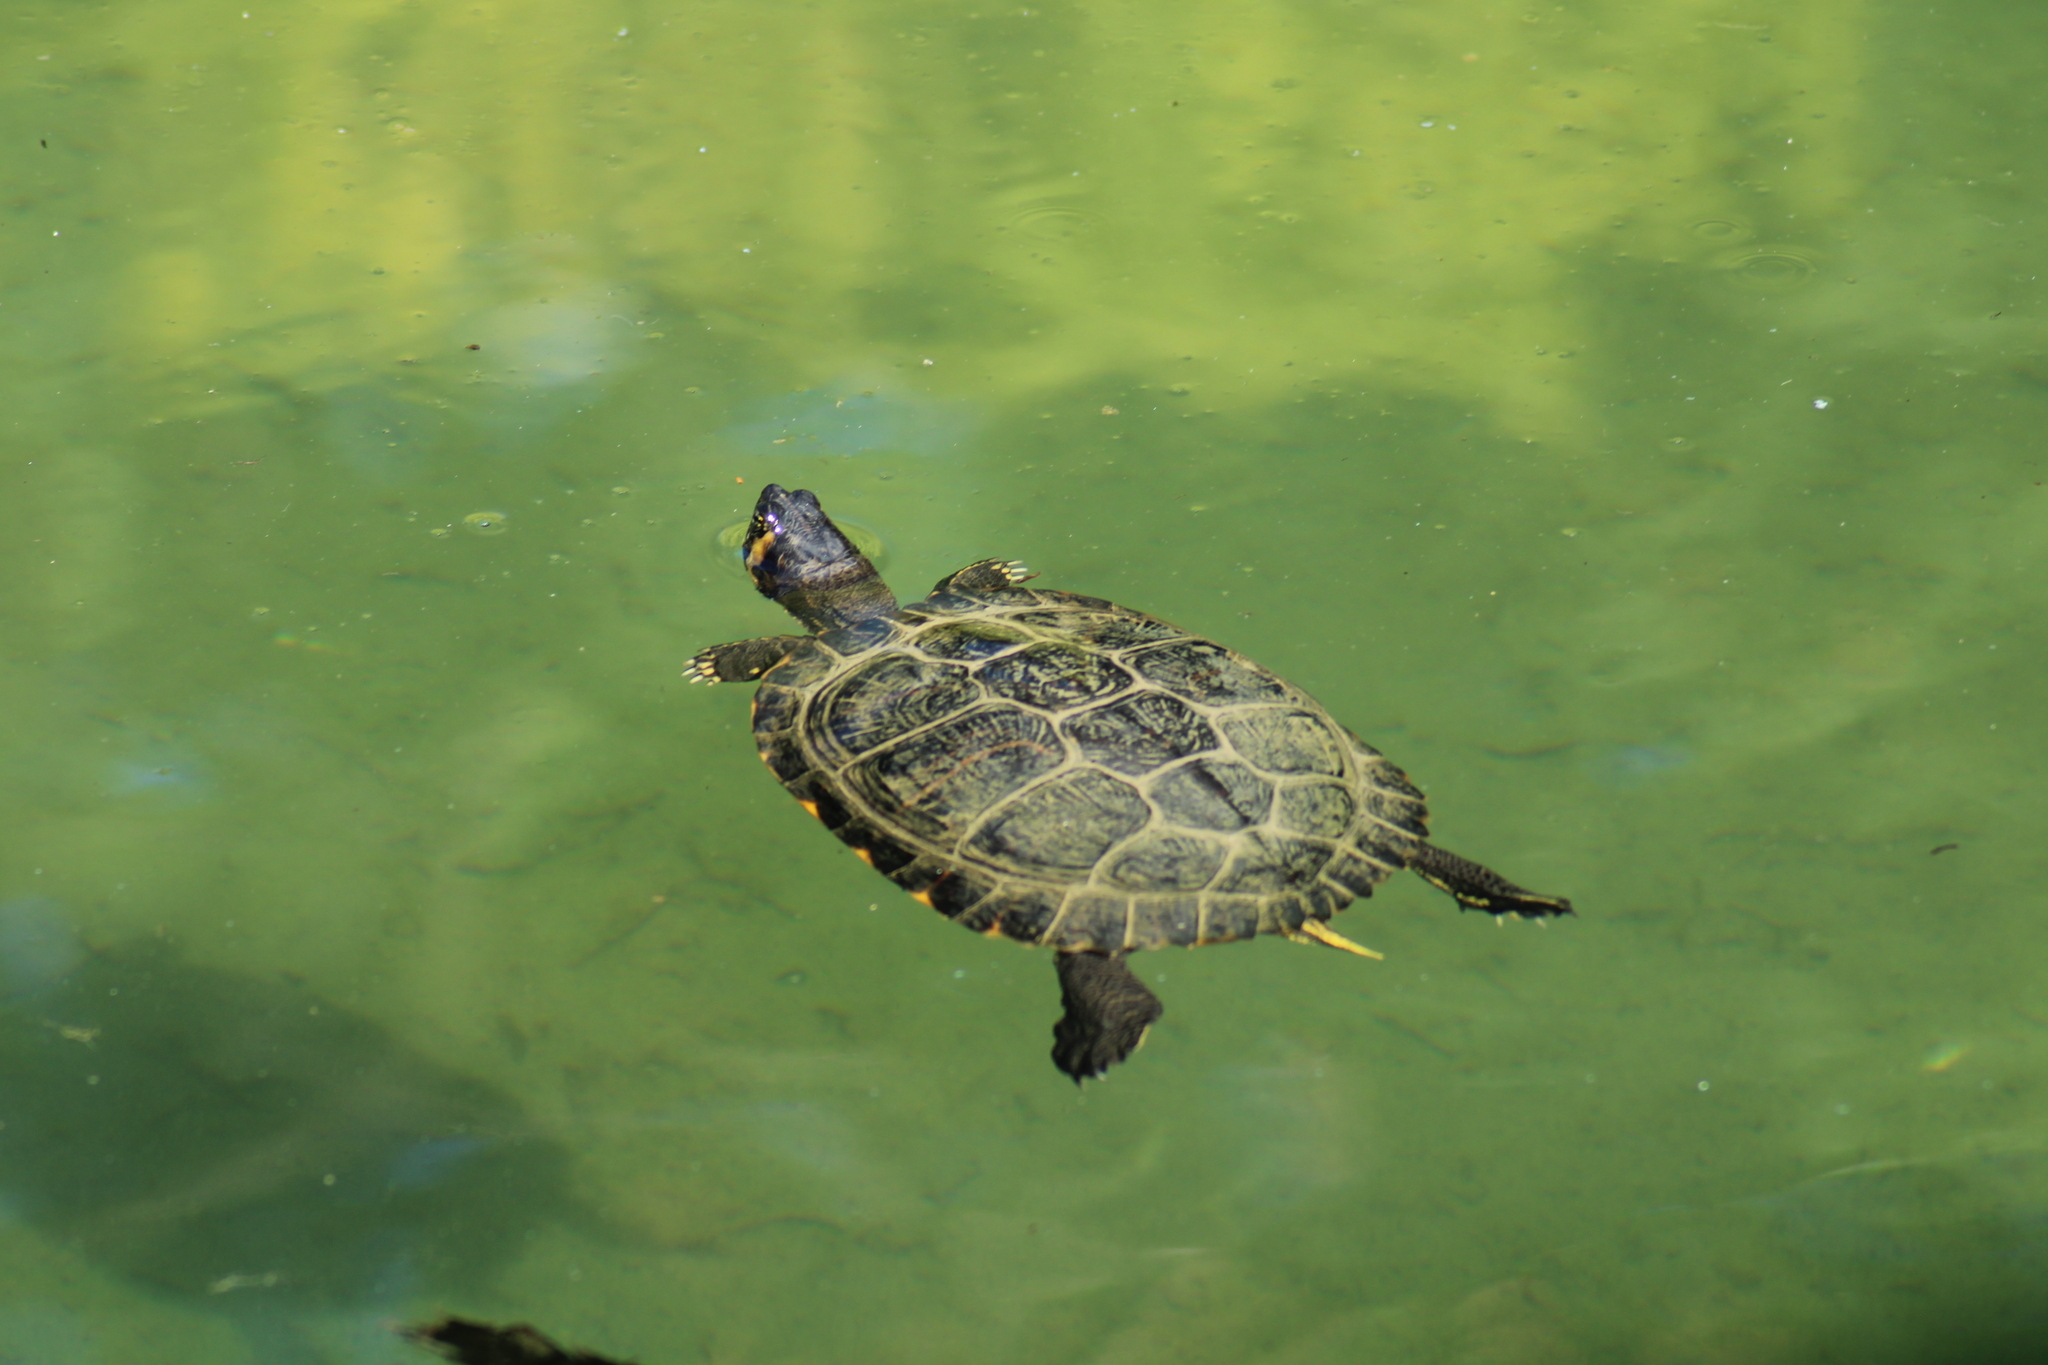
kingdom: Animalia
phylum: Chordata
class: Testudines
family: Emydidae
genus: Trachemys
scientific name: Trachemys scripta
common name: Slider
